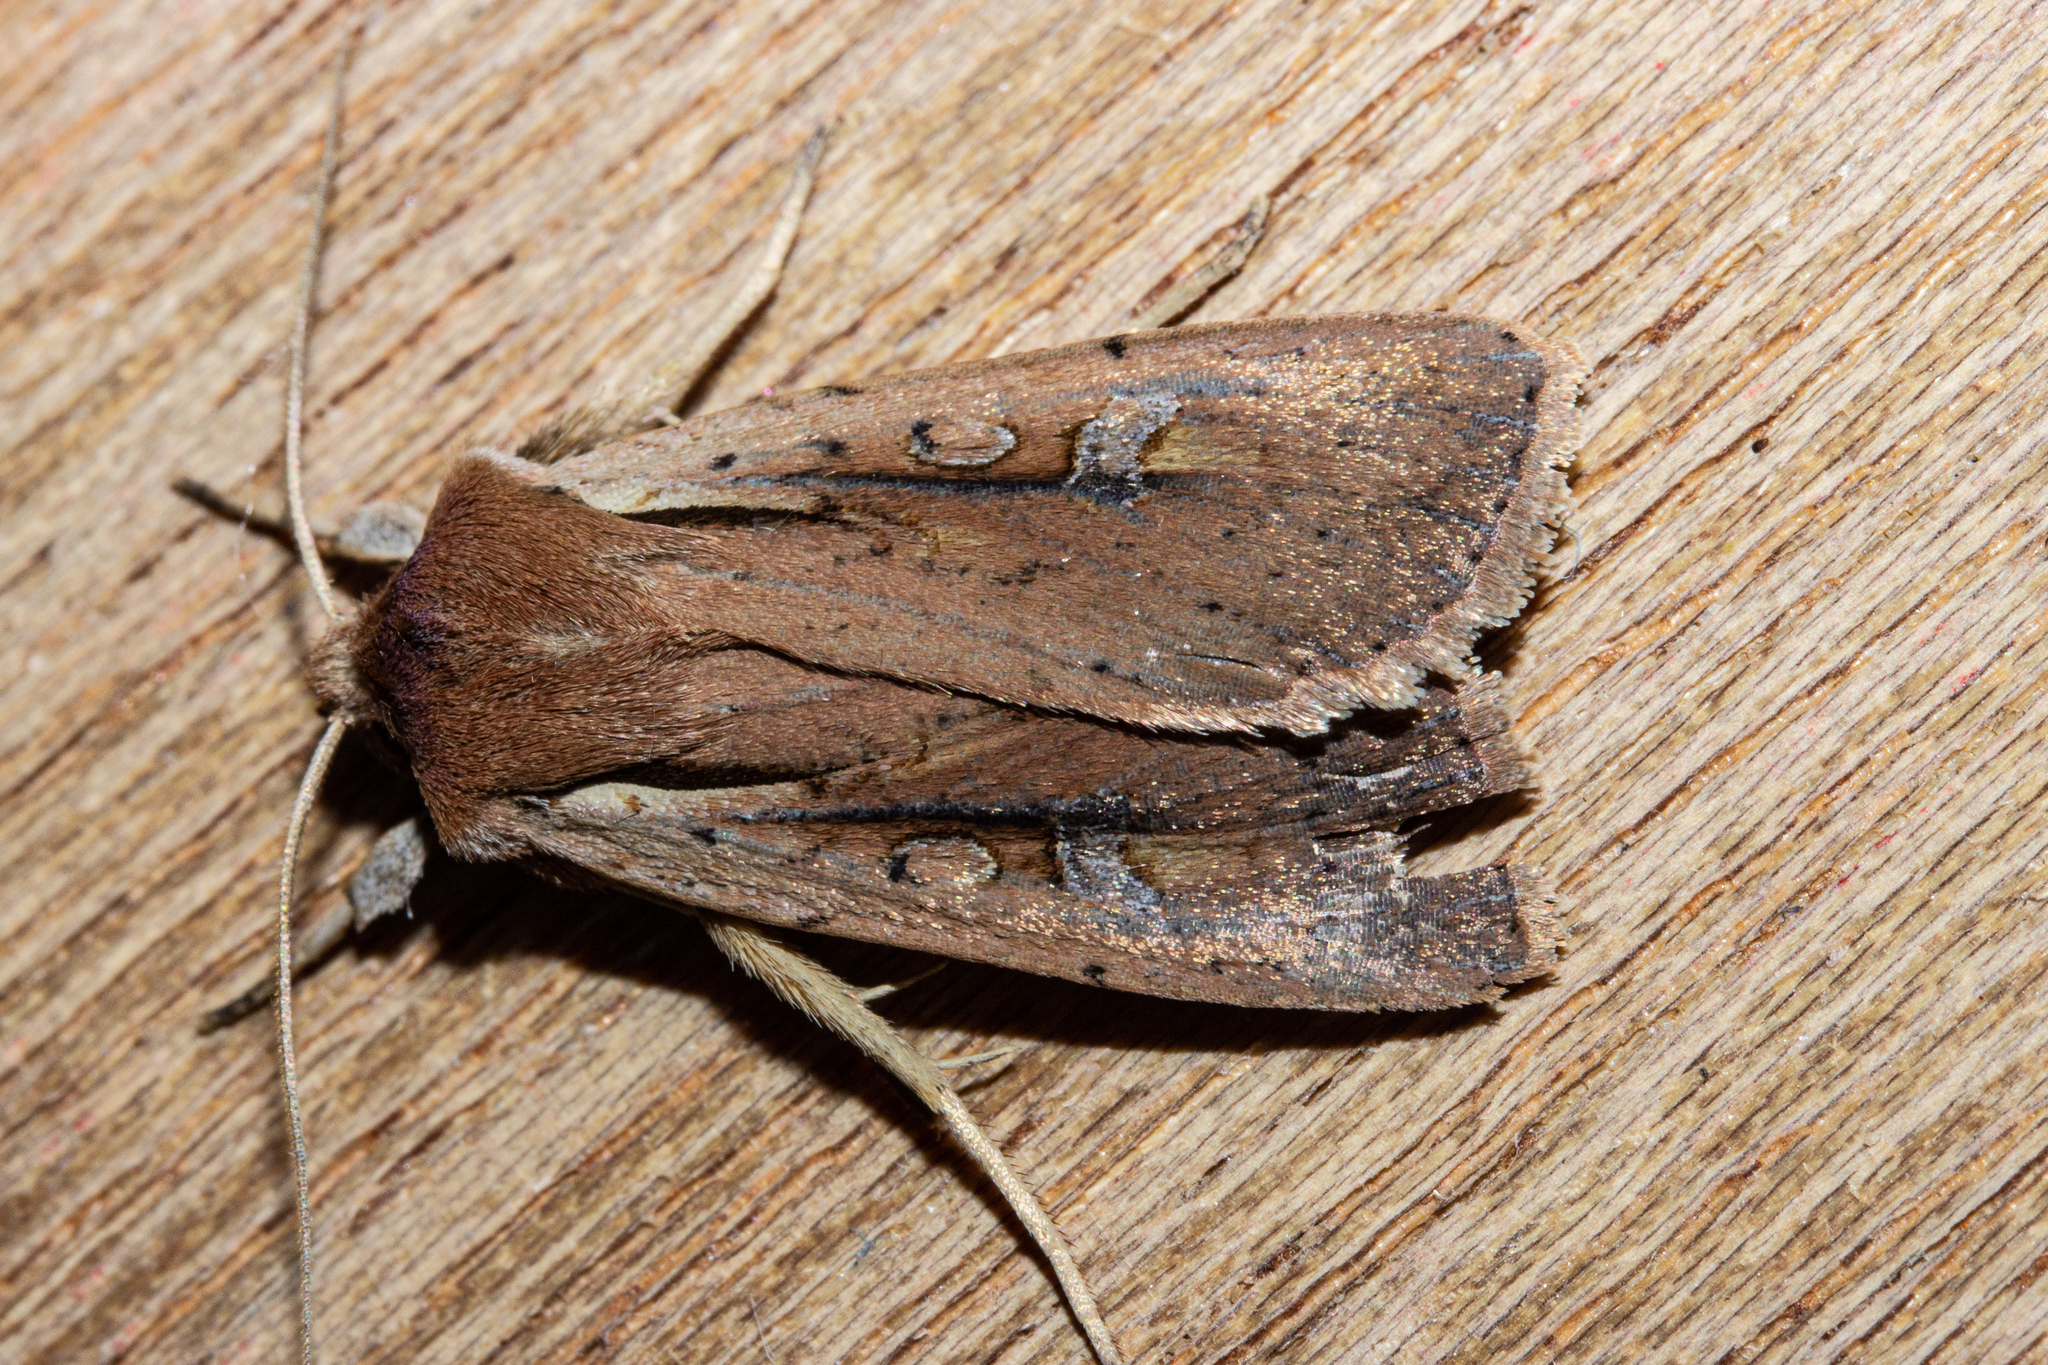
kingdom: Animalia
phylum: Arthropoda
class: Insecta
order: Lepidoptera
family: Noctuidae
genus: Ichneutica
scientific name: Ichneutica atristriga
